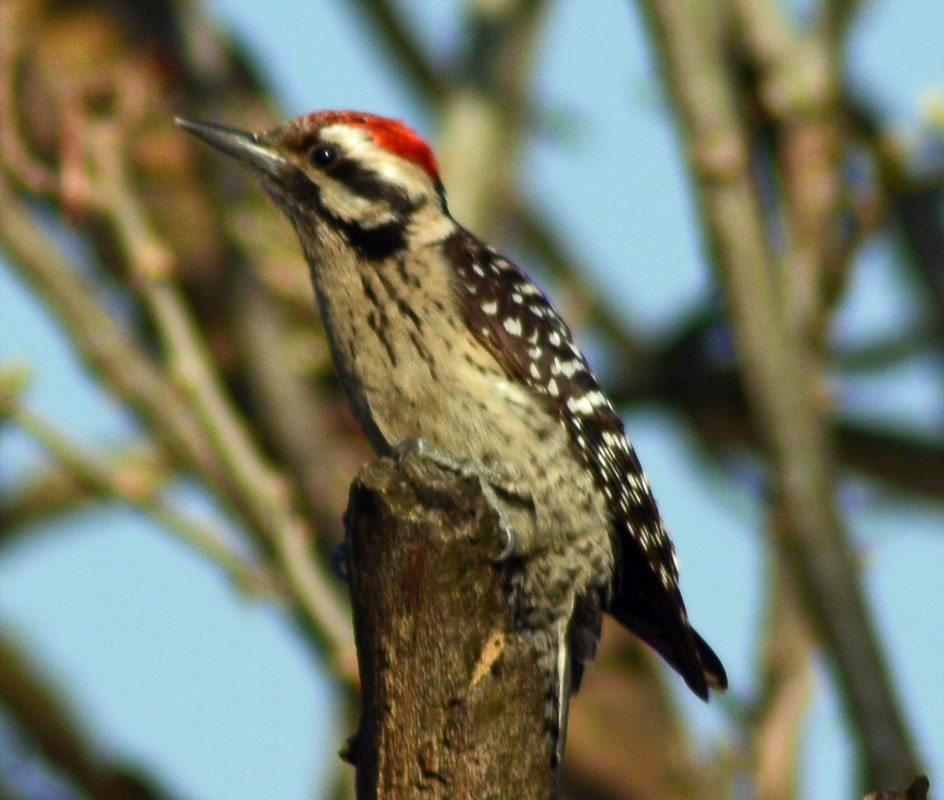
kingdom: Animalia
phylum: Chordata
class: Aves
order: Piciformes
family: Picidae
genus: Dryobates
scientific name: Dryobates scalaris
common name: Ladder-backed woodpecker
